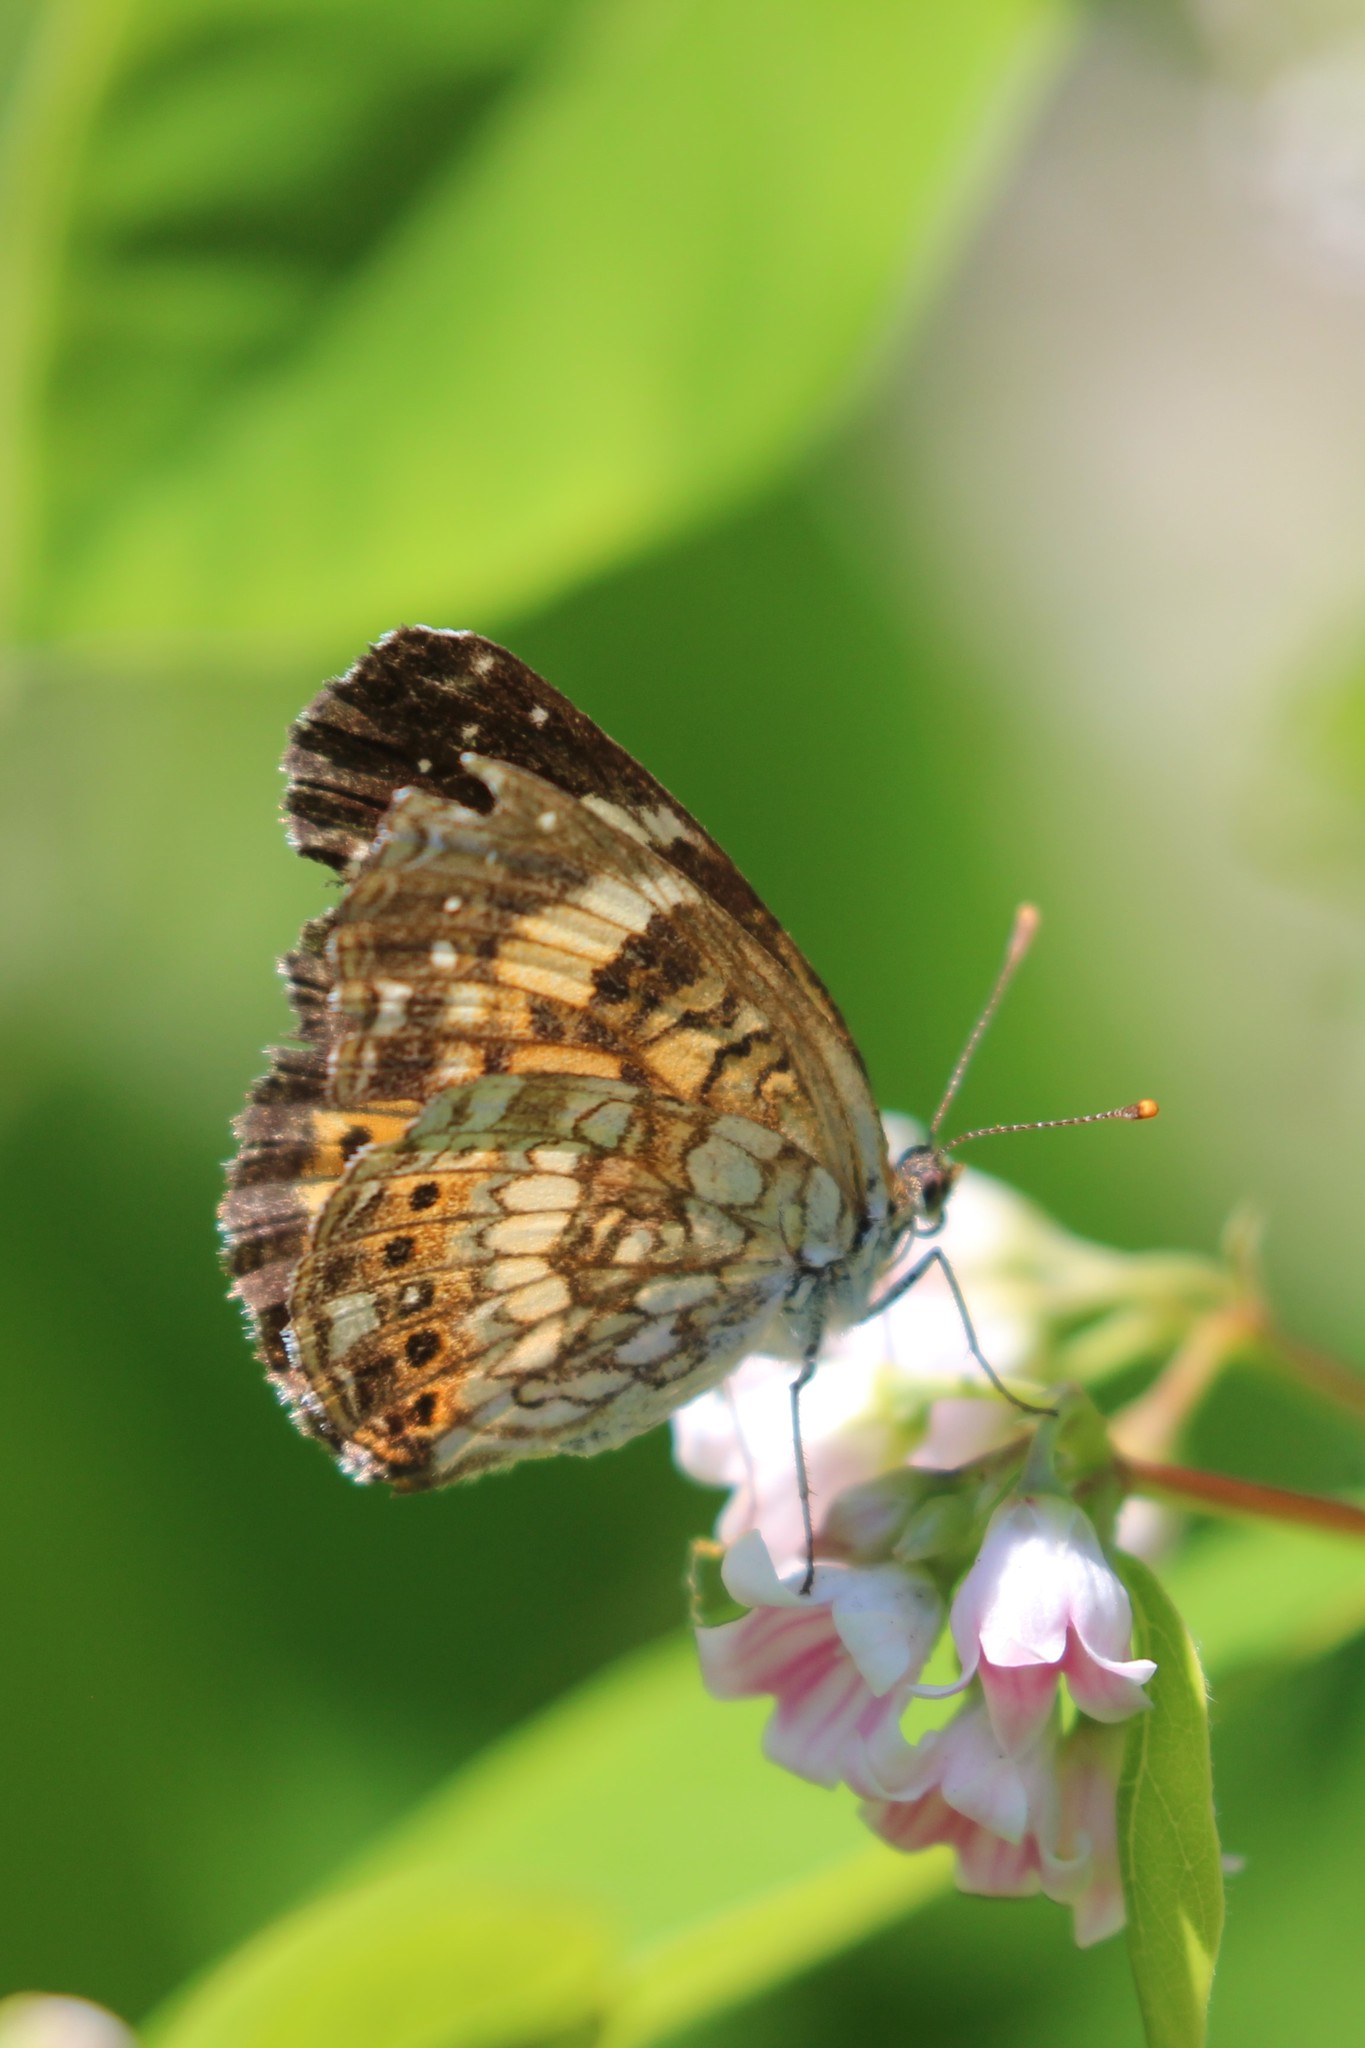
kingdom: Animalia
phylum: Arthropoda
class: Insecta
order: Lepidoptera
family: Nymphalidae
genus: Chlosyne
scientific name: Chlosyne nycteis
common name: Silvery checkerspot
